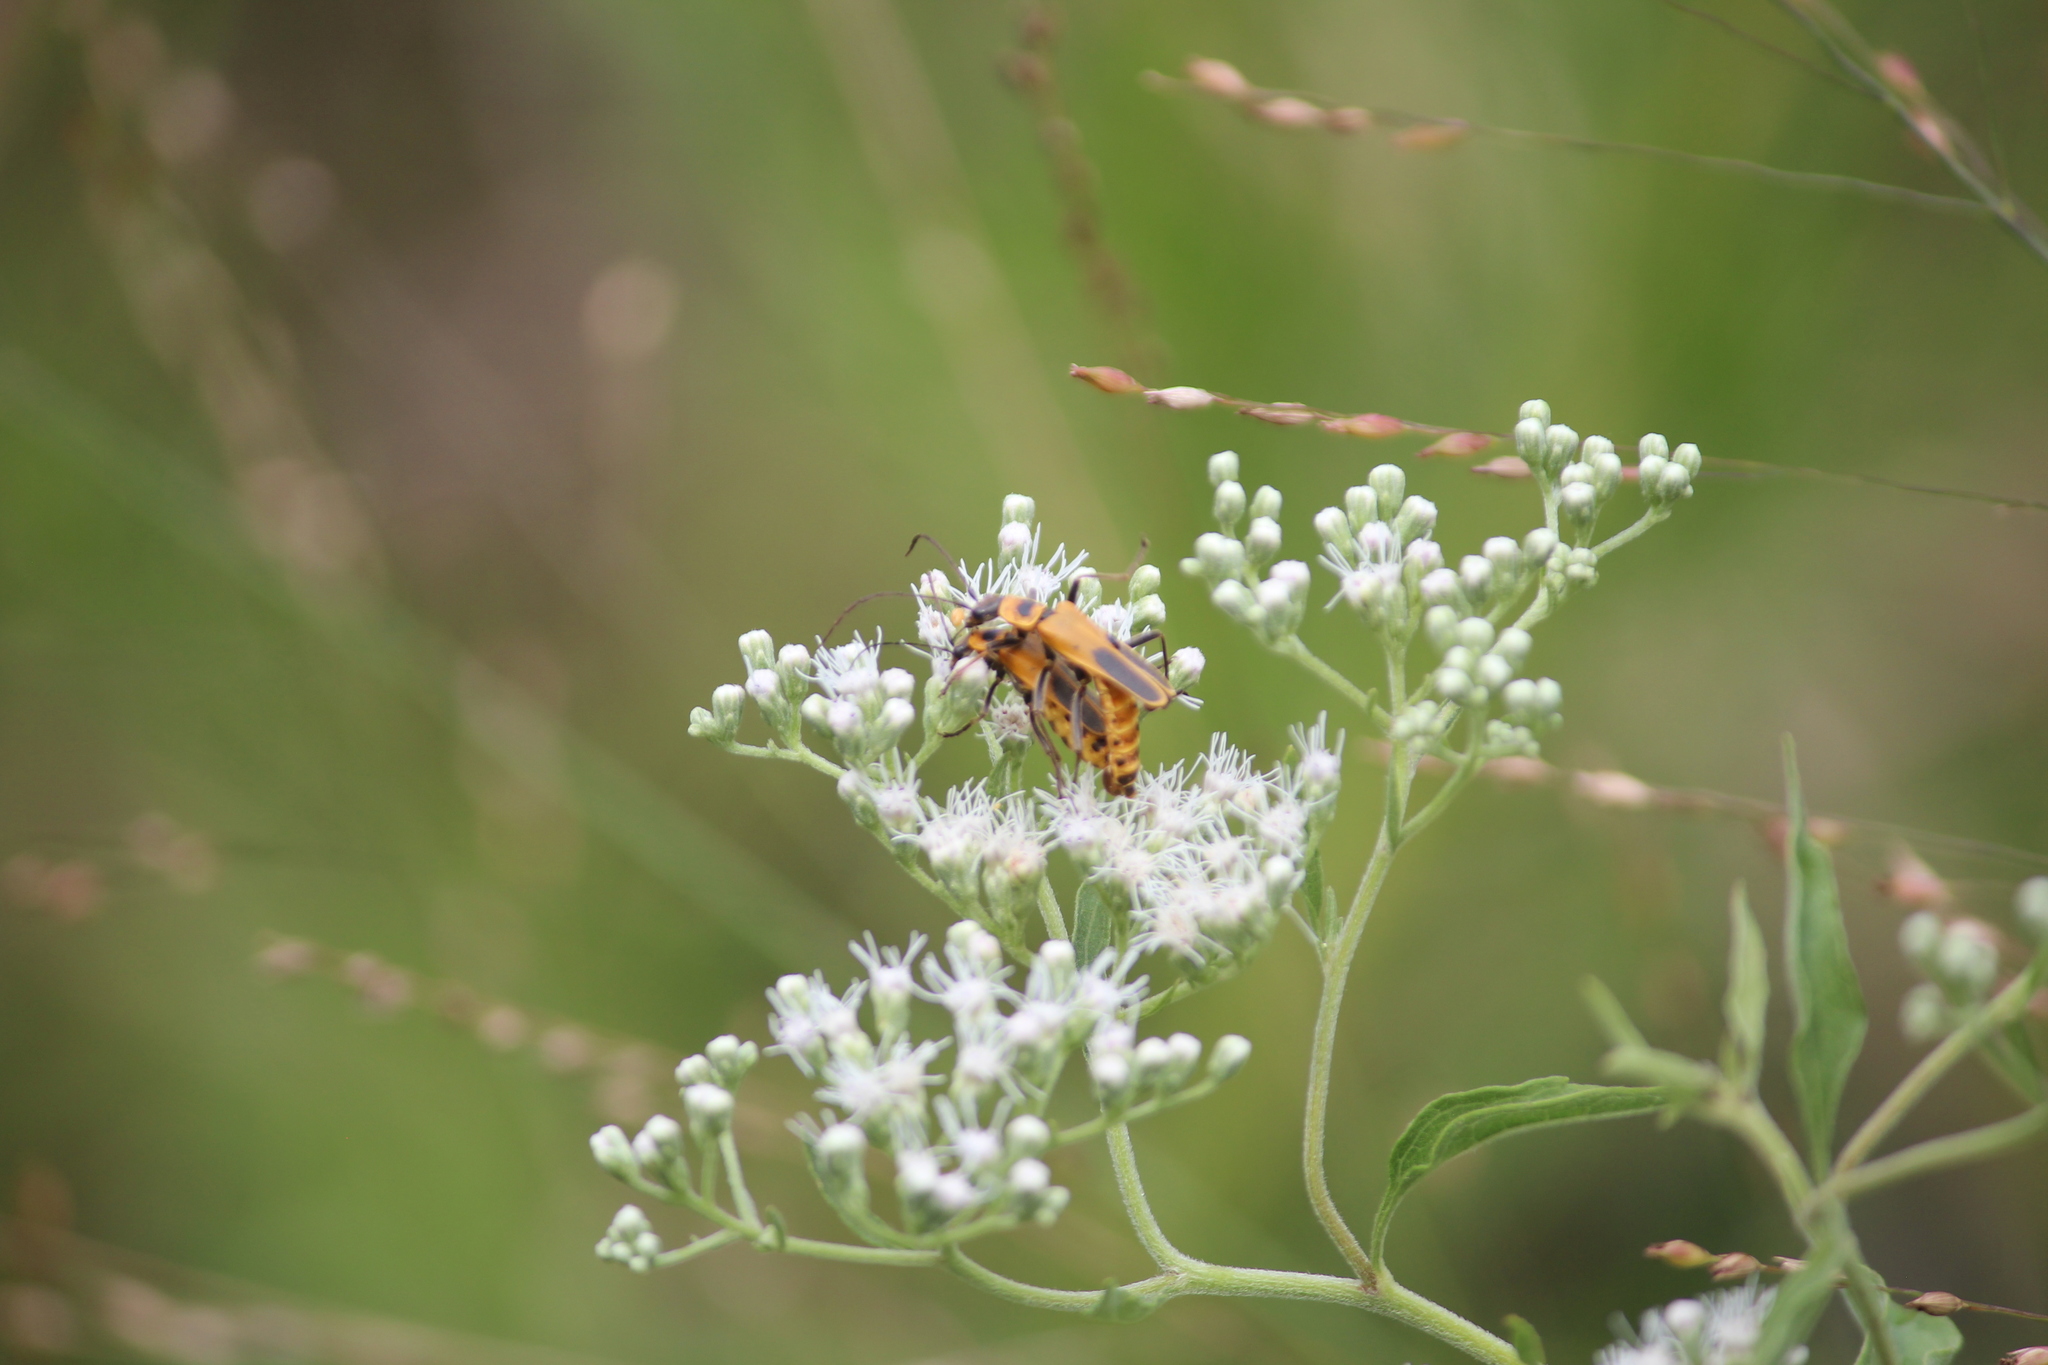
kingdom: Plantae
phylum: Tracheophyta
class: Magnoliopsida
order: Asterales
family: Asteraceae
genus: Eupatorium
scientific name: Eupatorium serotinum
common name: Late boneset
